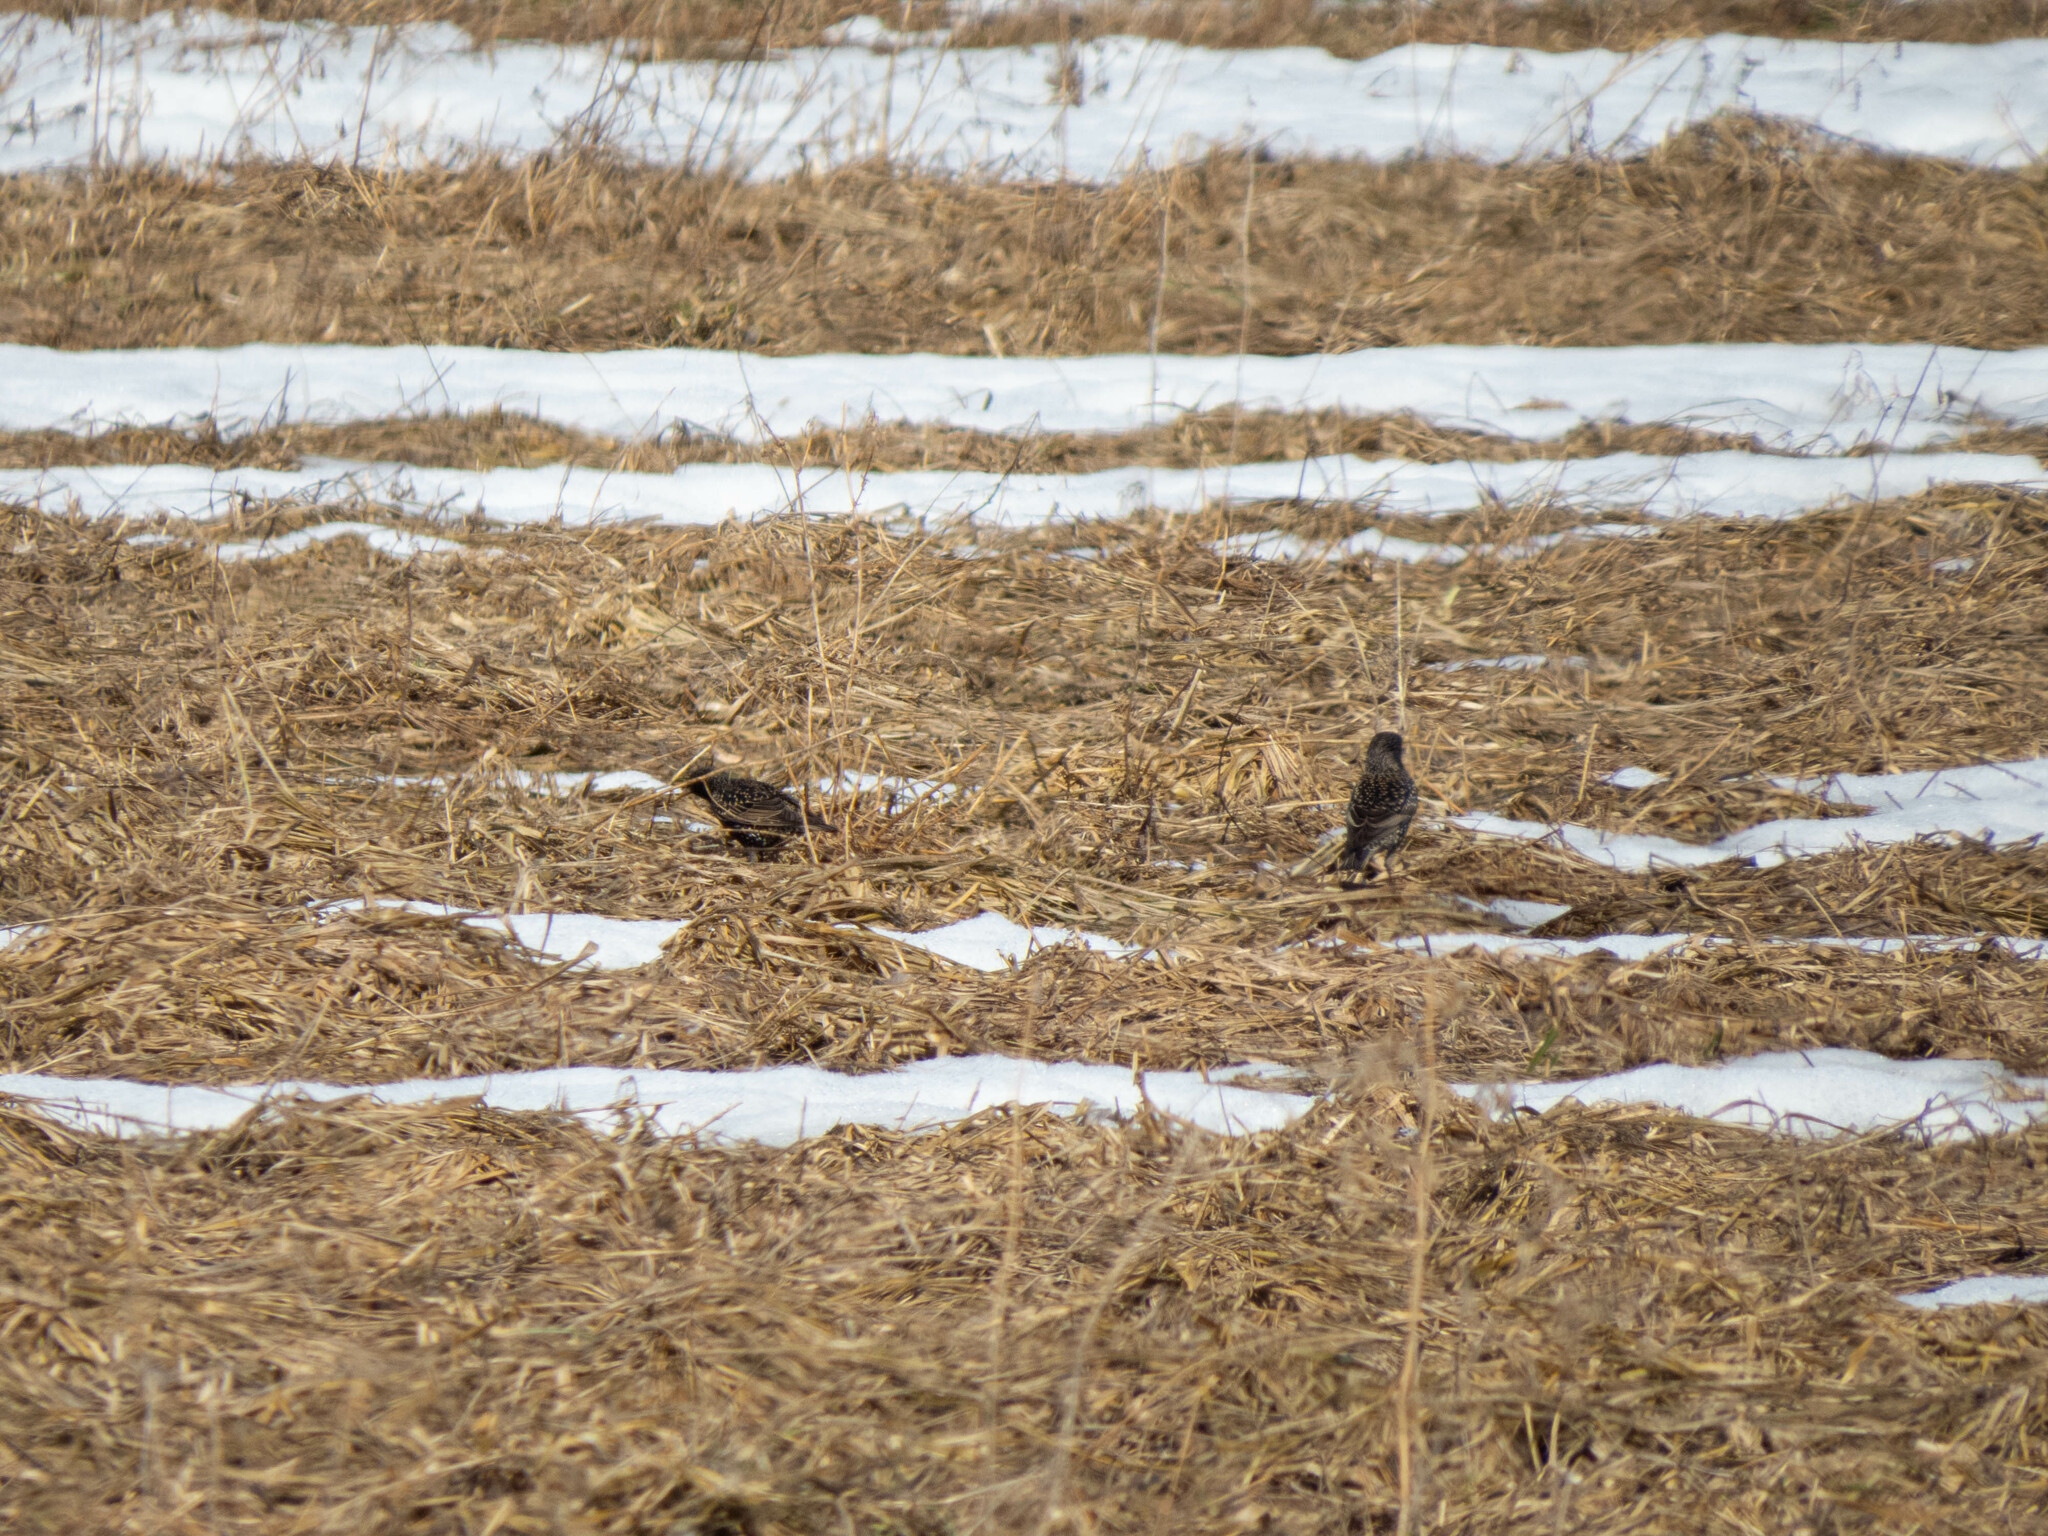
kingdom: Animalia
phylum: Chordata
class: Aves
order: Passeriformes
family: Sturnidae
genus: Sturnus
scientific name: Sturnus vulgaris
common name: Common starling
